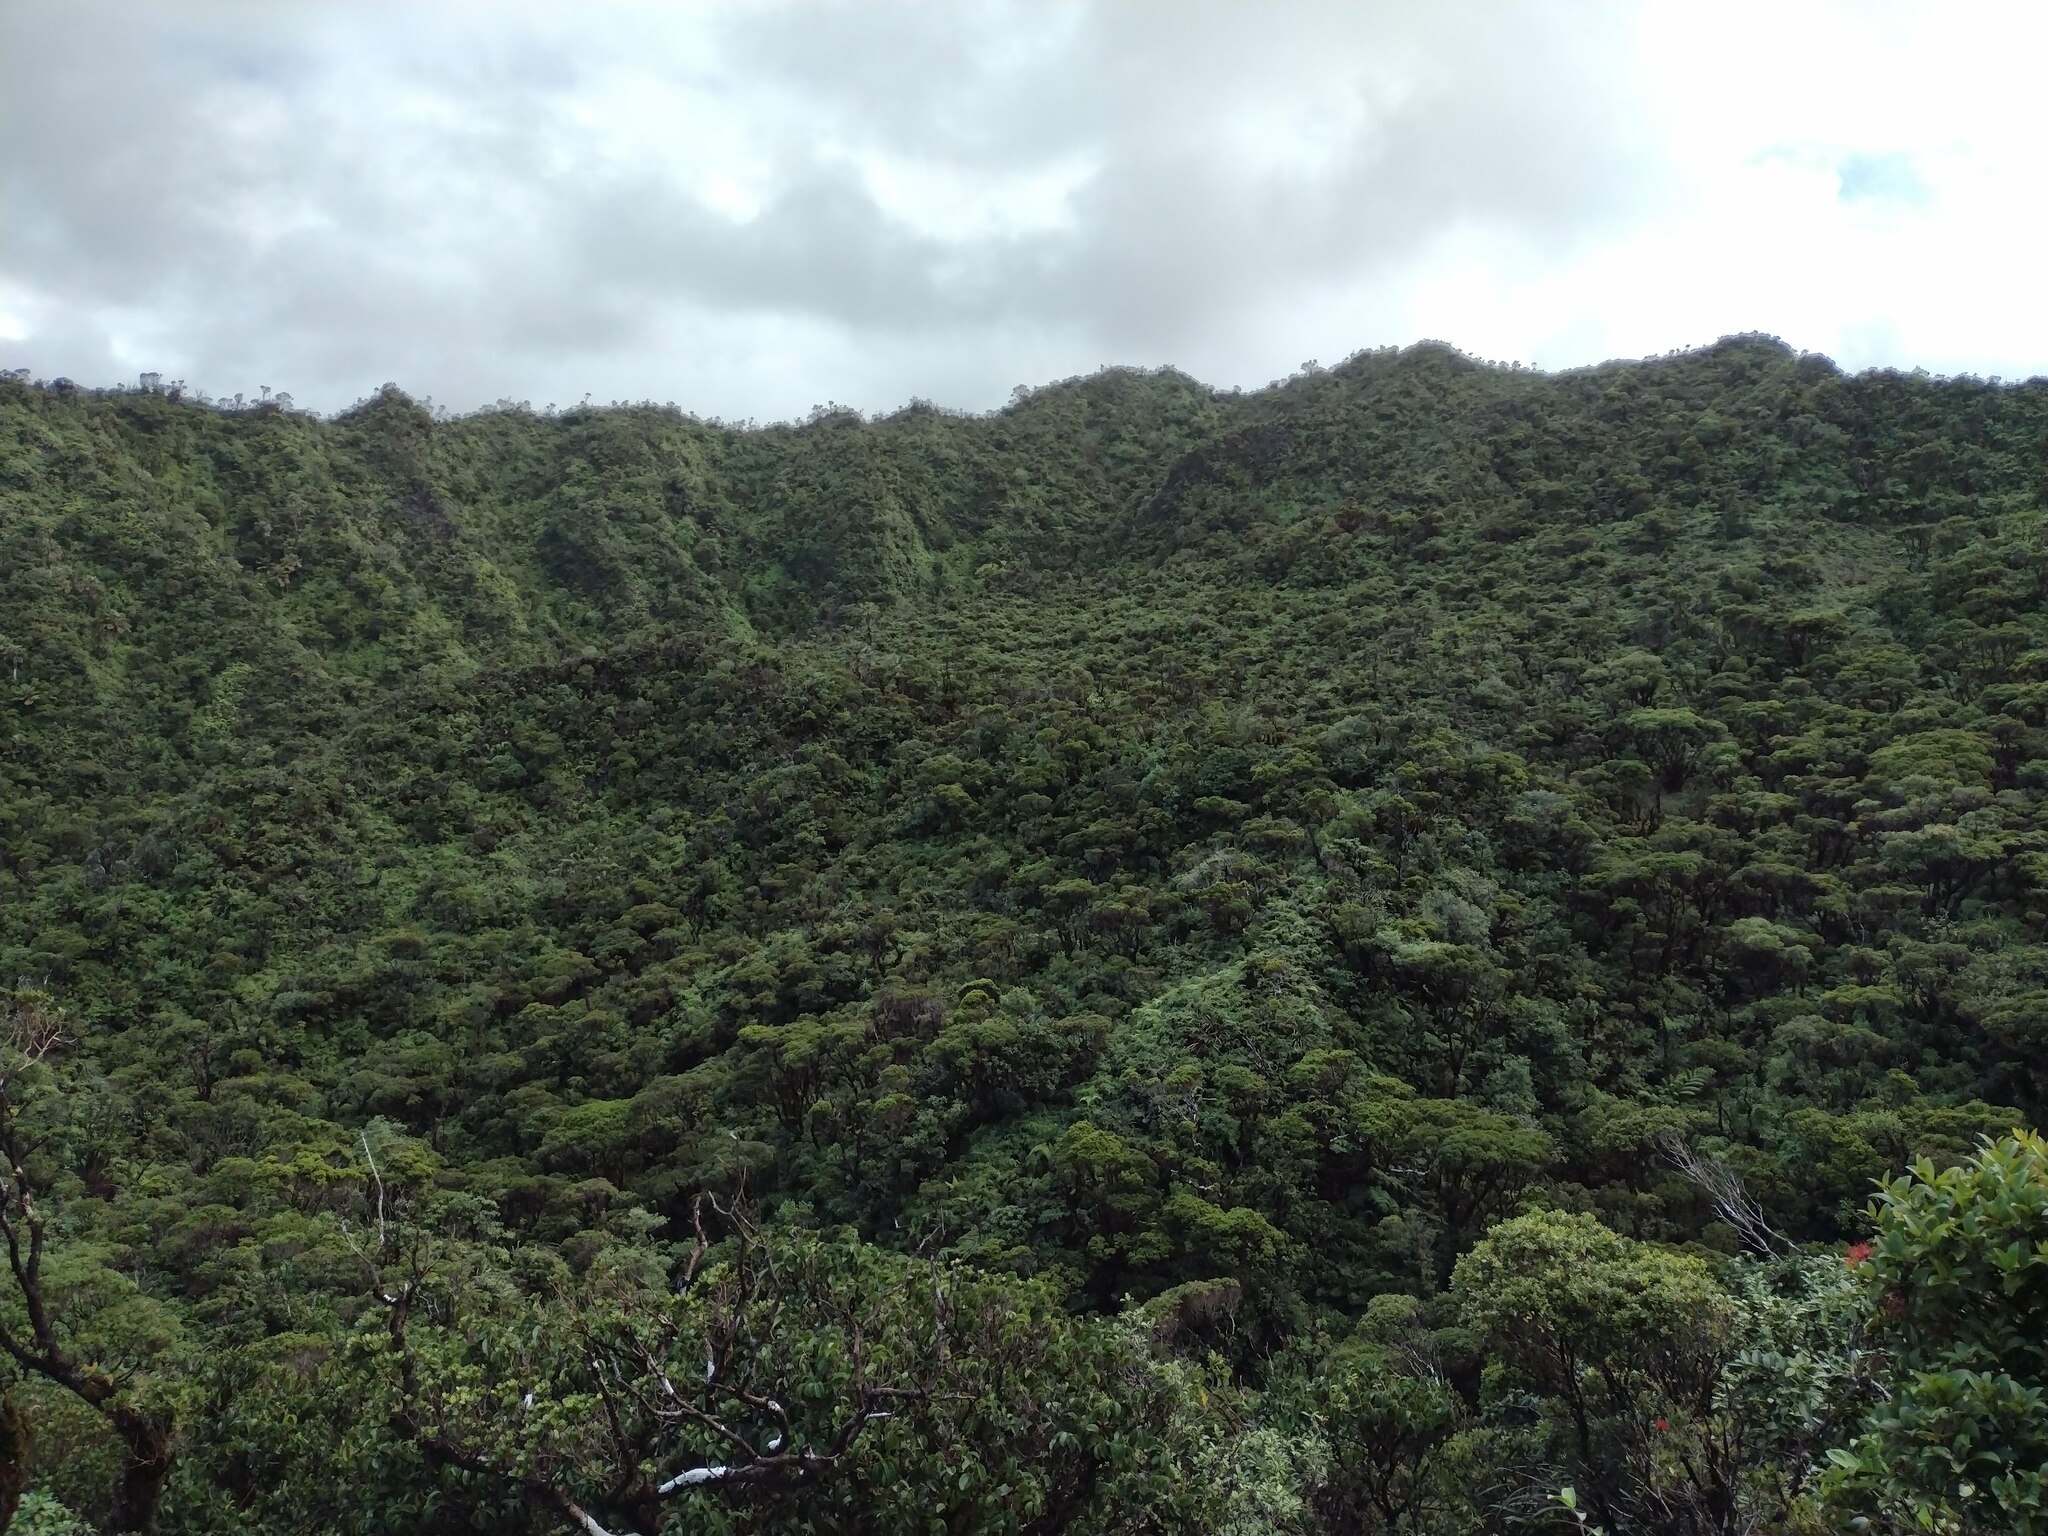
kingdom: Plantae
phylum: Tracheophyta
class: Magnoliopsida
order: Myrtales
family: Myrtaceae
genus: Metrosideros
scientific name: Metrosideros polymorpha
